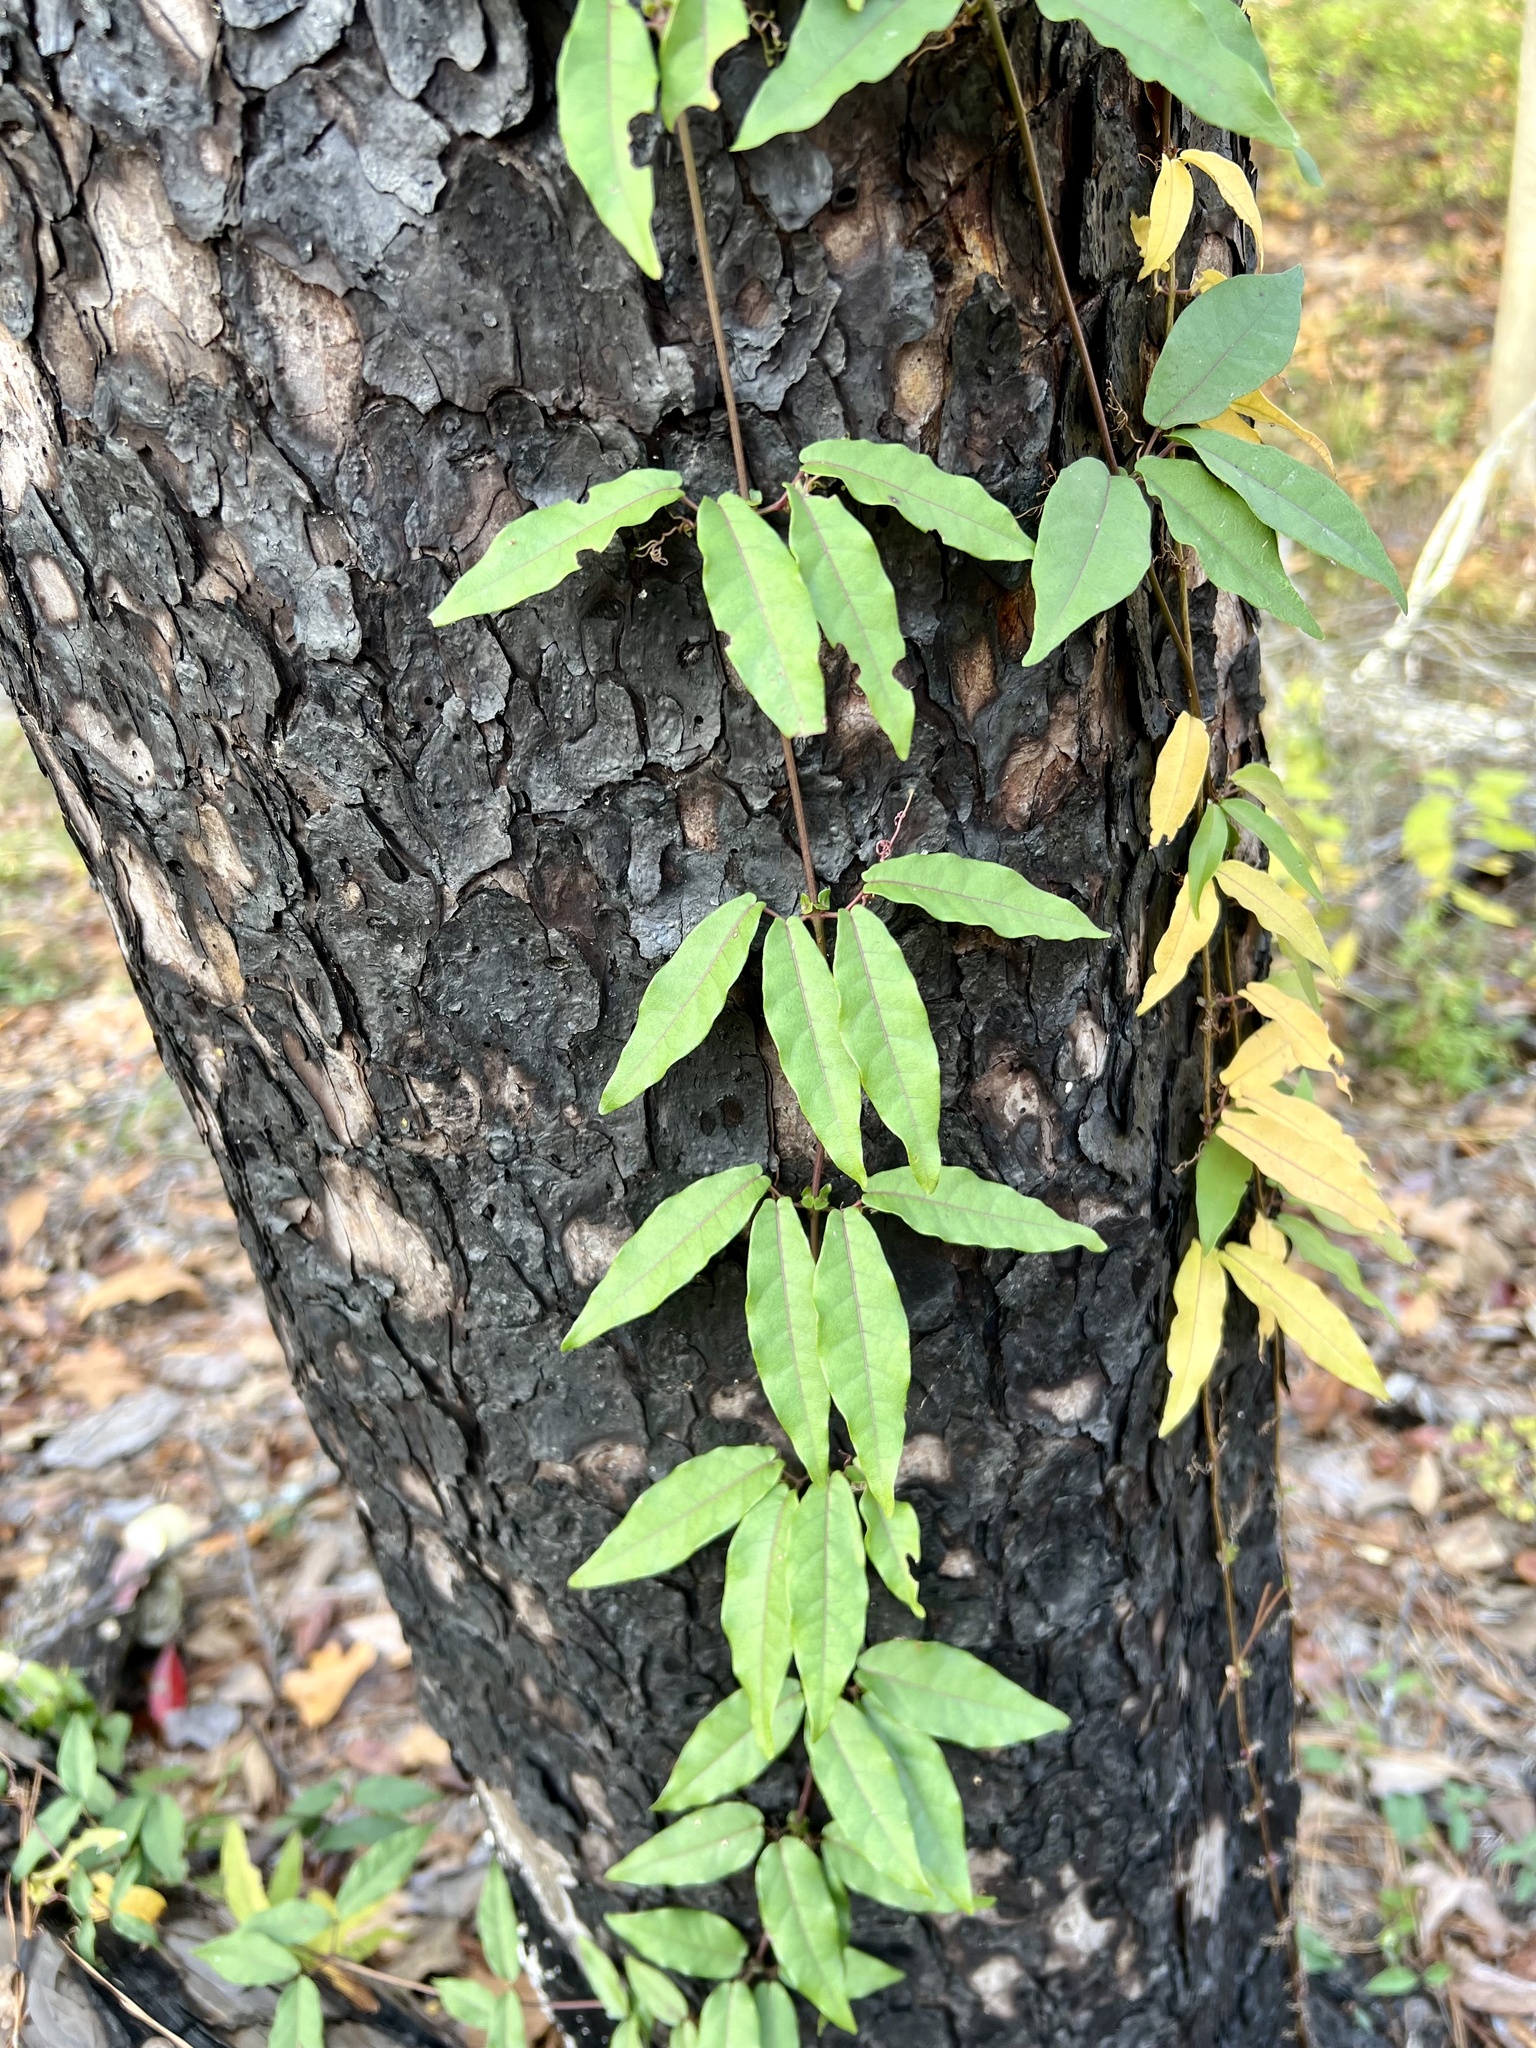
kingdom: Plantae
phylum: Tracheophyta
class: Magnoliopsida
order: Lamiales
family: Bignoniaceae
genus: Bignonia
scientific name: Bignonia capreolata
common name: Crossvine
